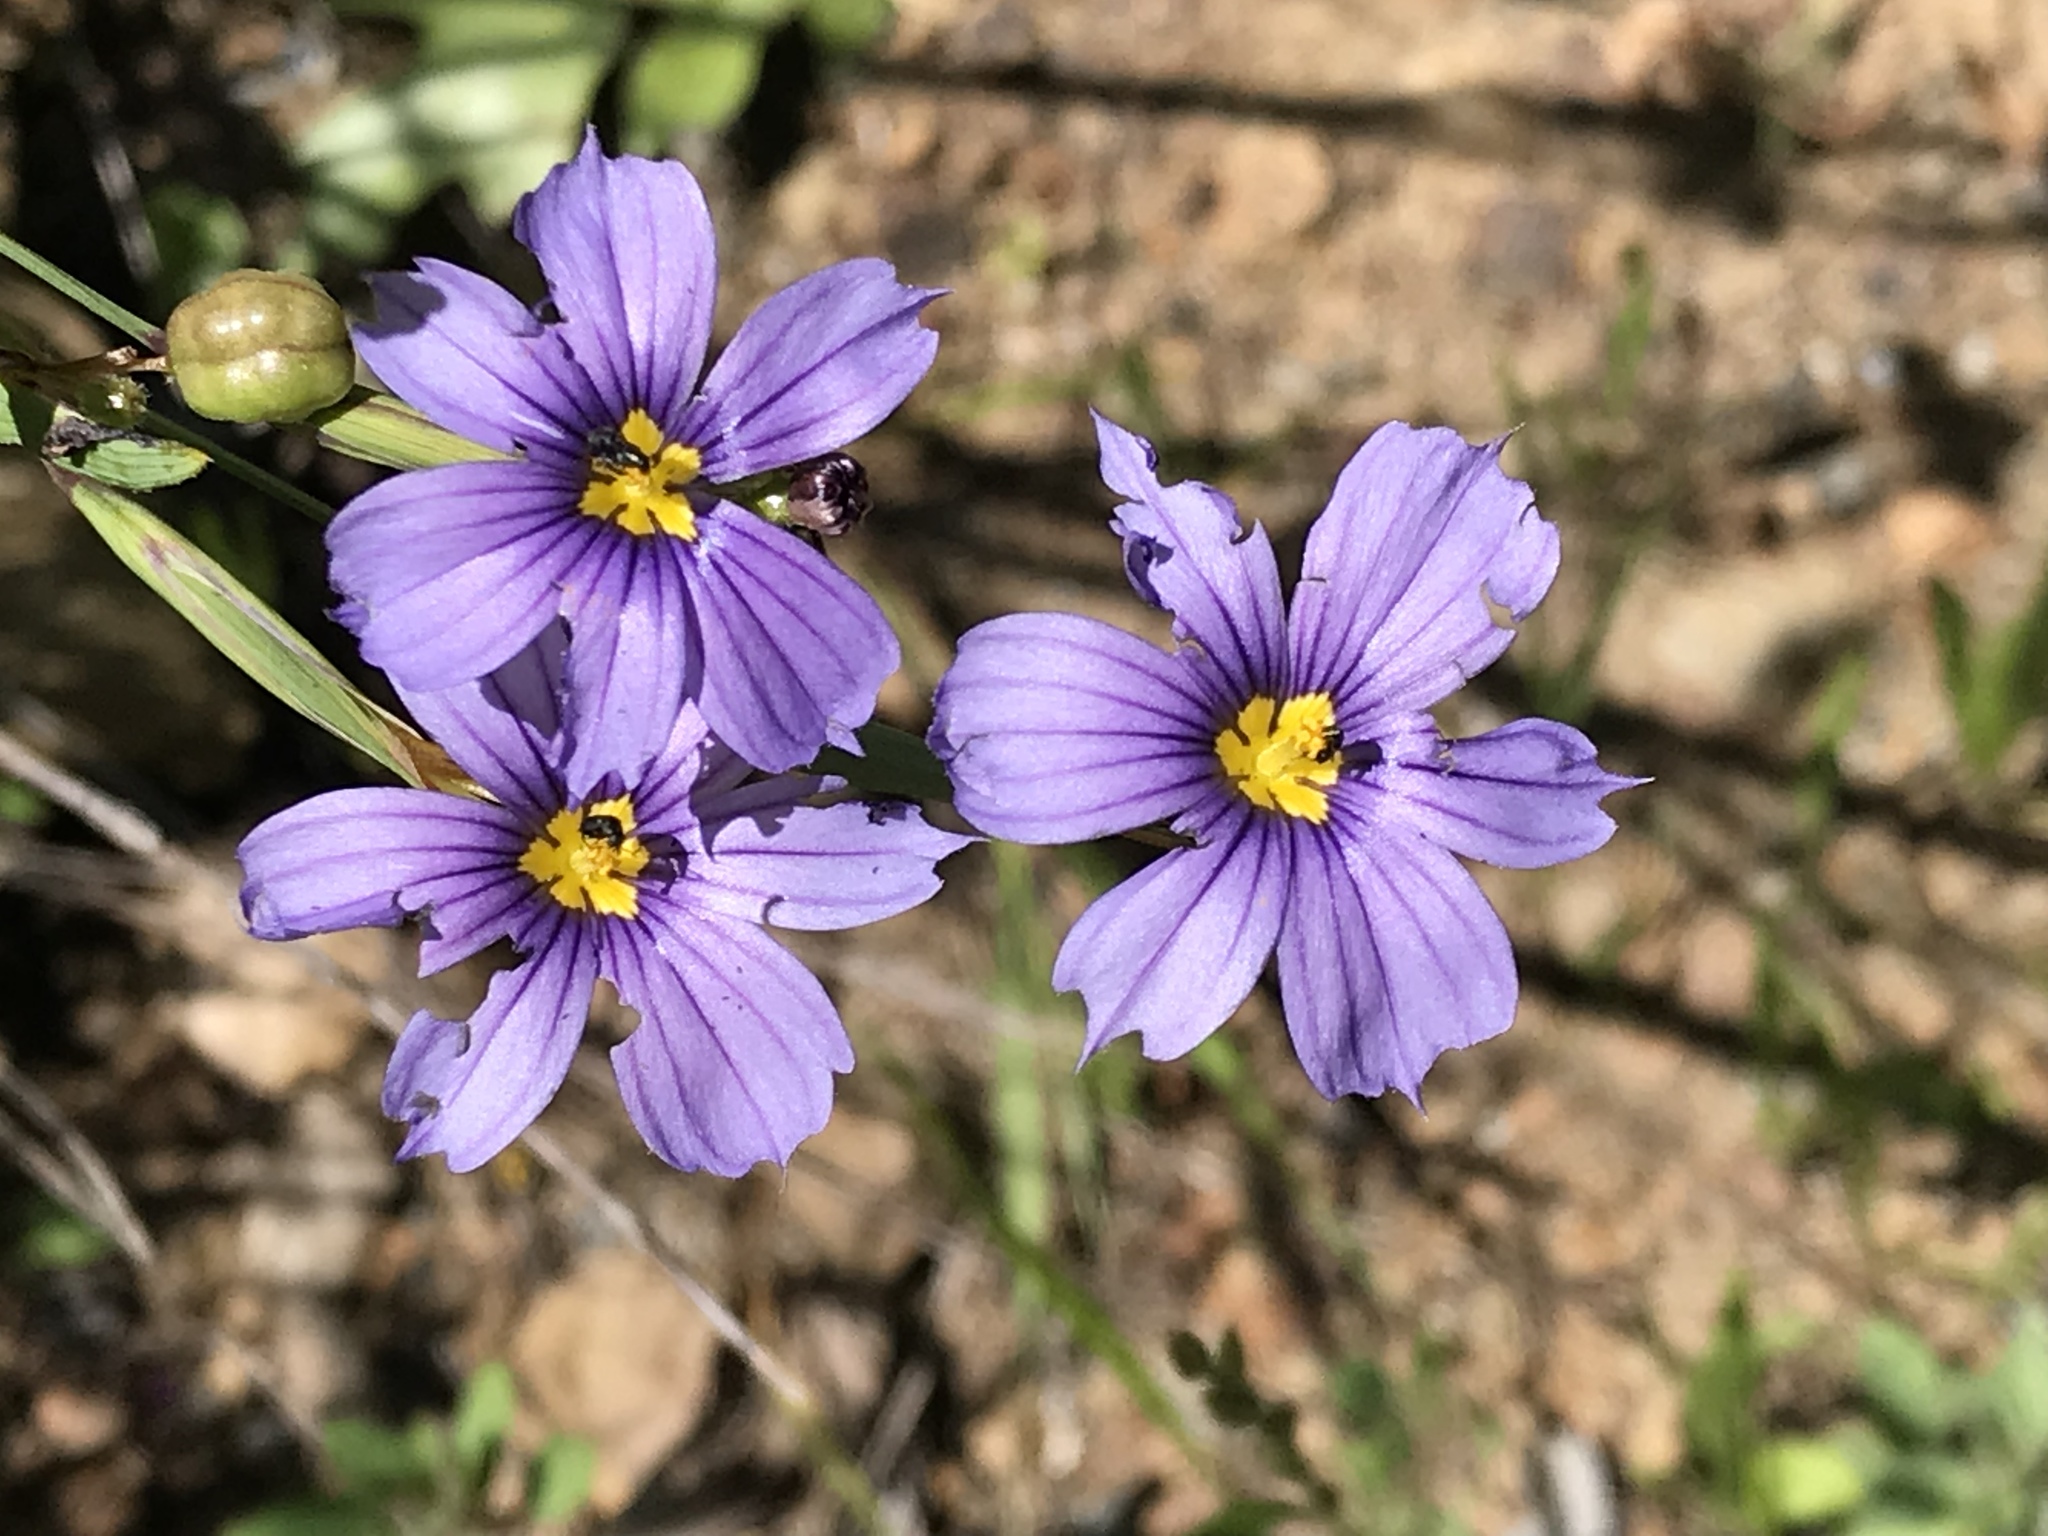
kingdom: Plantae
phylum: Tracheophyta
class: Liliopsida
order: Asparagales
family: Iridaceae
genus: Sisyrinchium
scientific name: Sisyrinchium bellum
